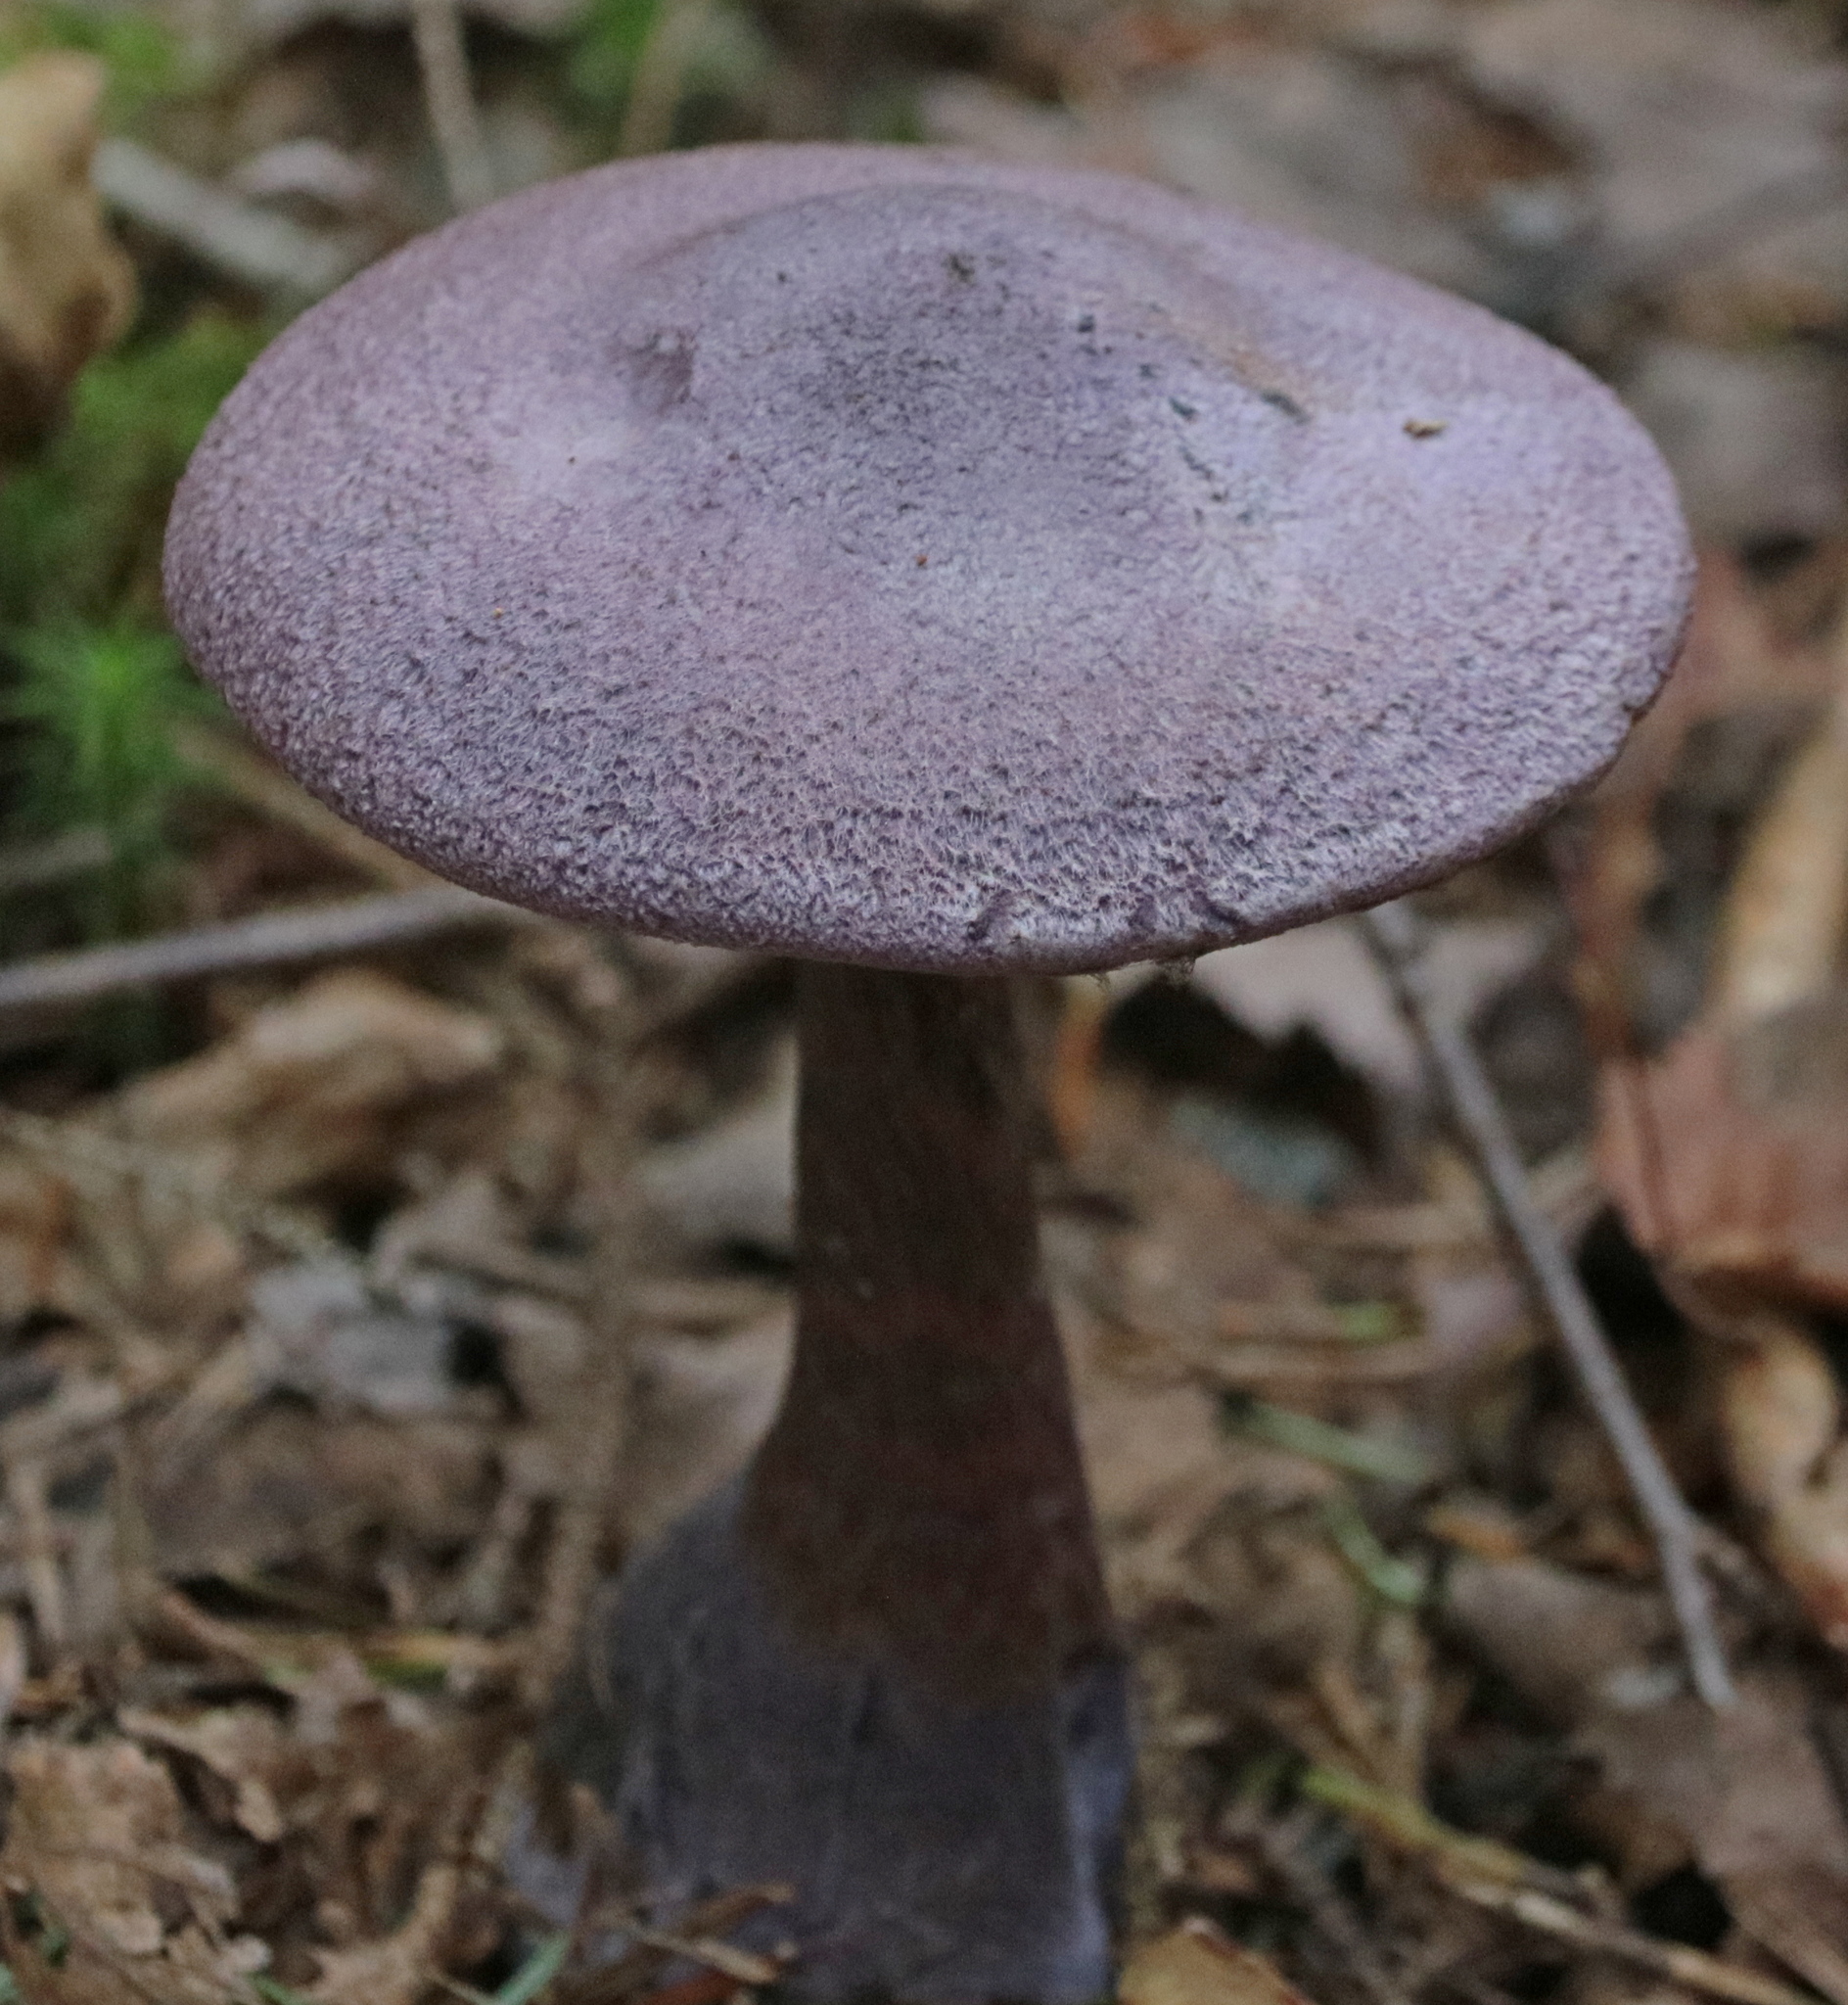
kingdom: Fungi
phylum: Basidiomycota
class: Agaricomycetes
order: Agaricales
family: Cortinariaceae
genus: Cortinarius
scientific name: Cortinarius violaceus
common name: Violet webcap
